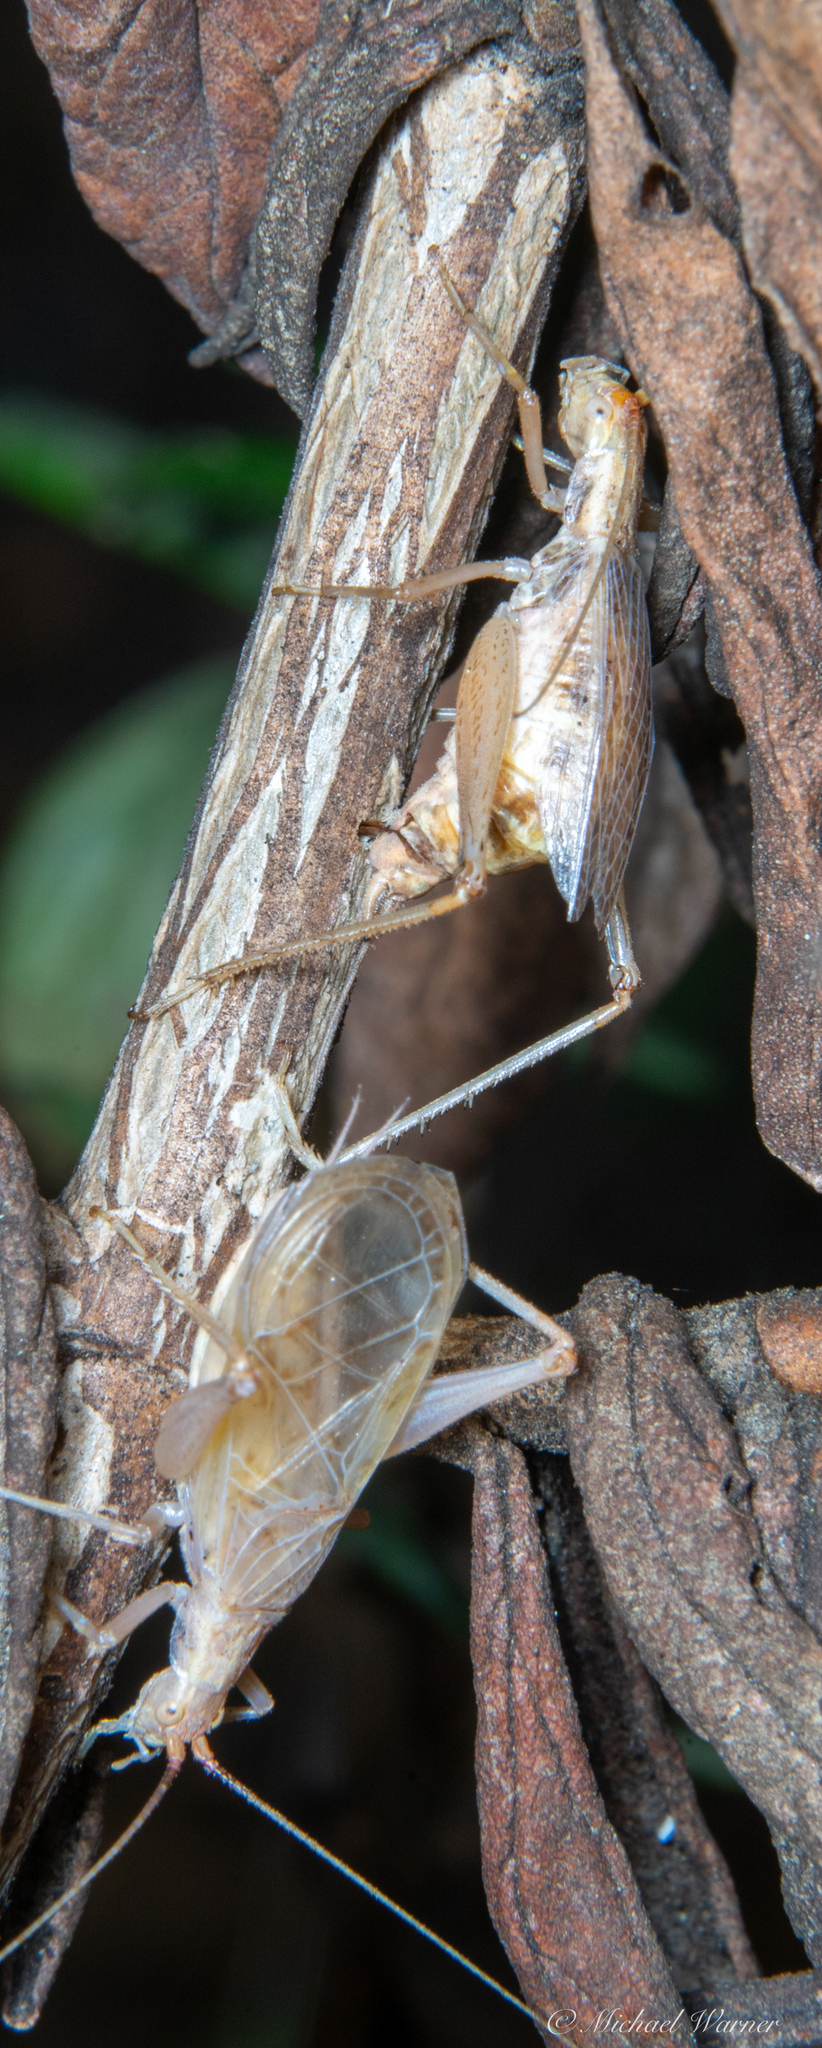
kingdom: Animalia
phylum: Arthropoda
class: Insecta
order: Orthoptera
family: Gryllidae
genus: Oecanthus
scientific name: Oecanthus californicus
